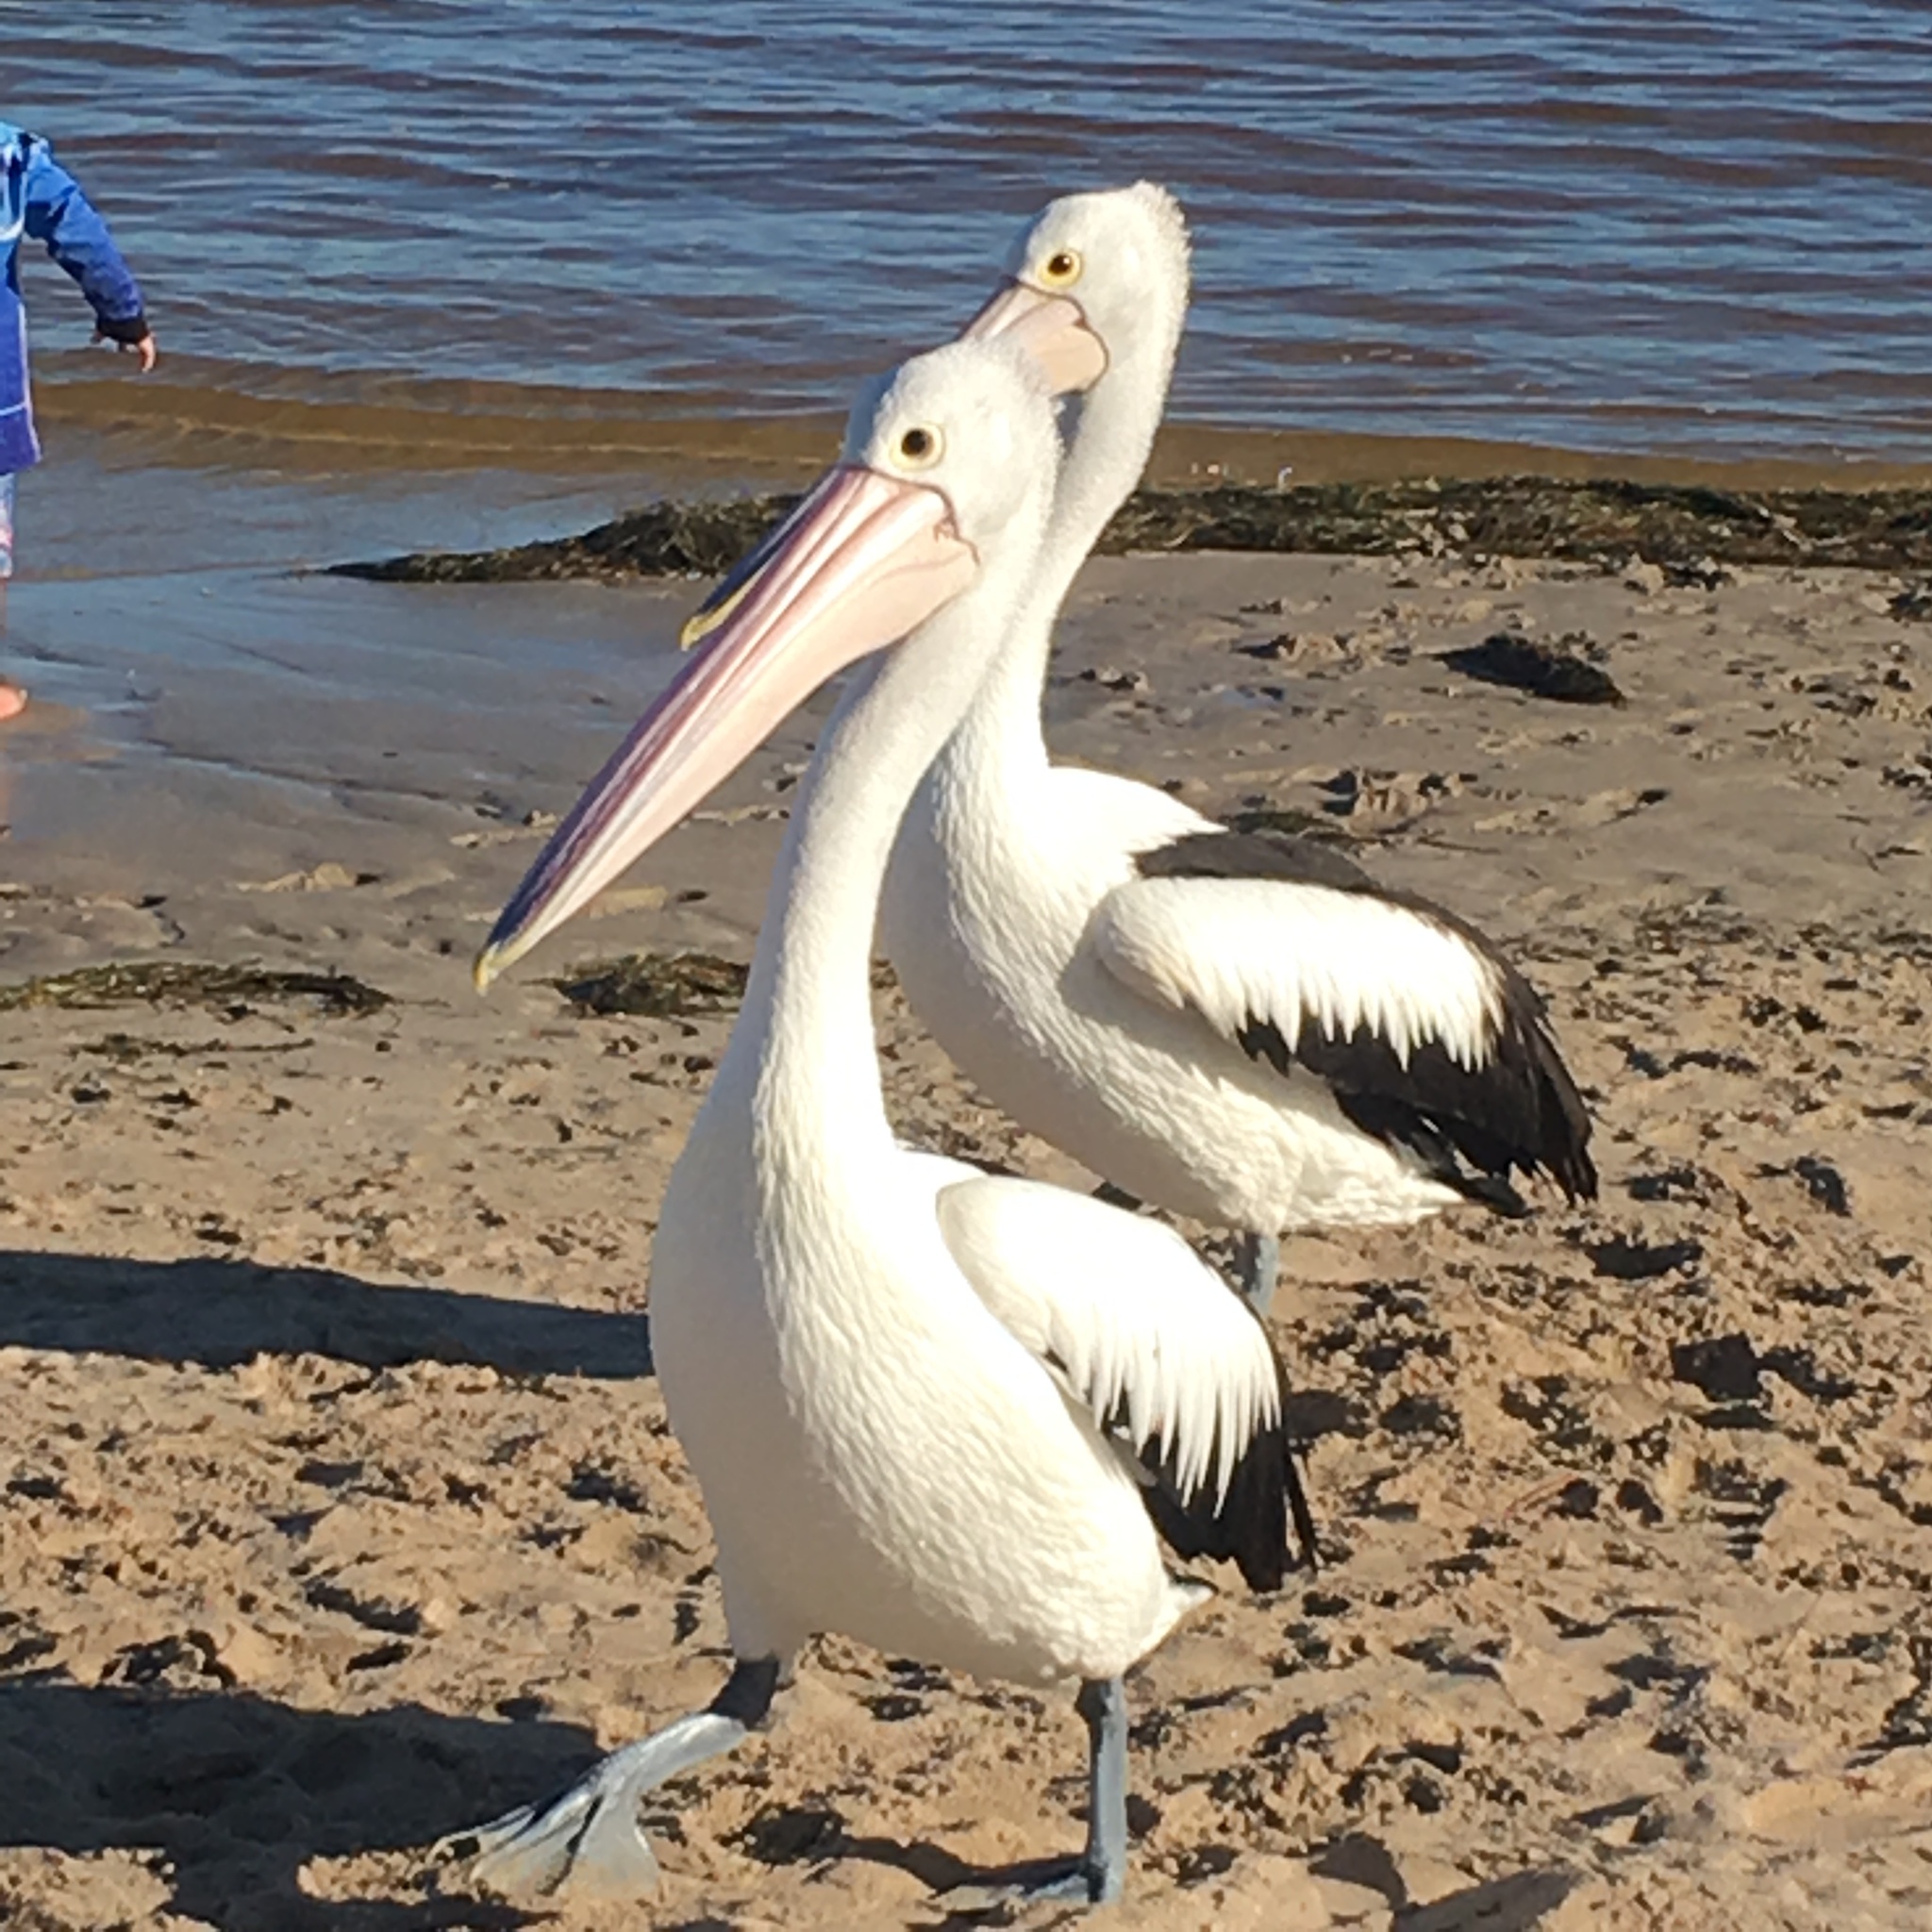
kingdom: Animalia
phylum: Chordata
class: Aves
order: Pelecaniformes
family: Pelecanidae
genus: Pelecanus
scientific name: Pelecanus conspicillatus
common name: Australian pelican
